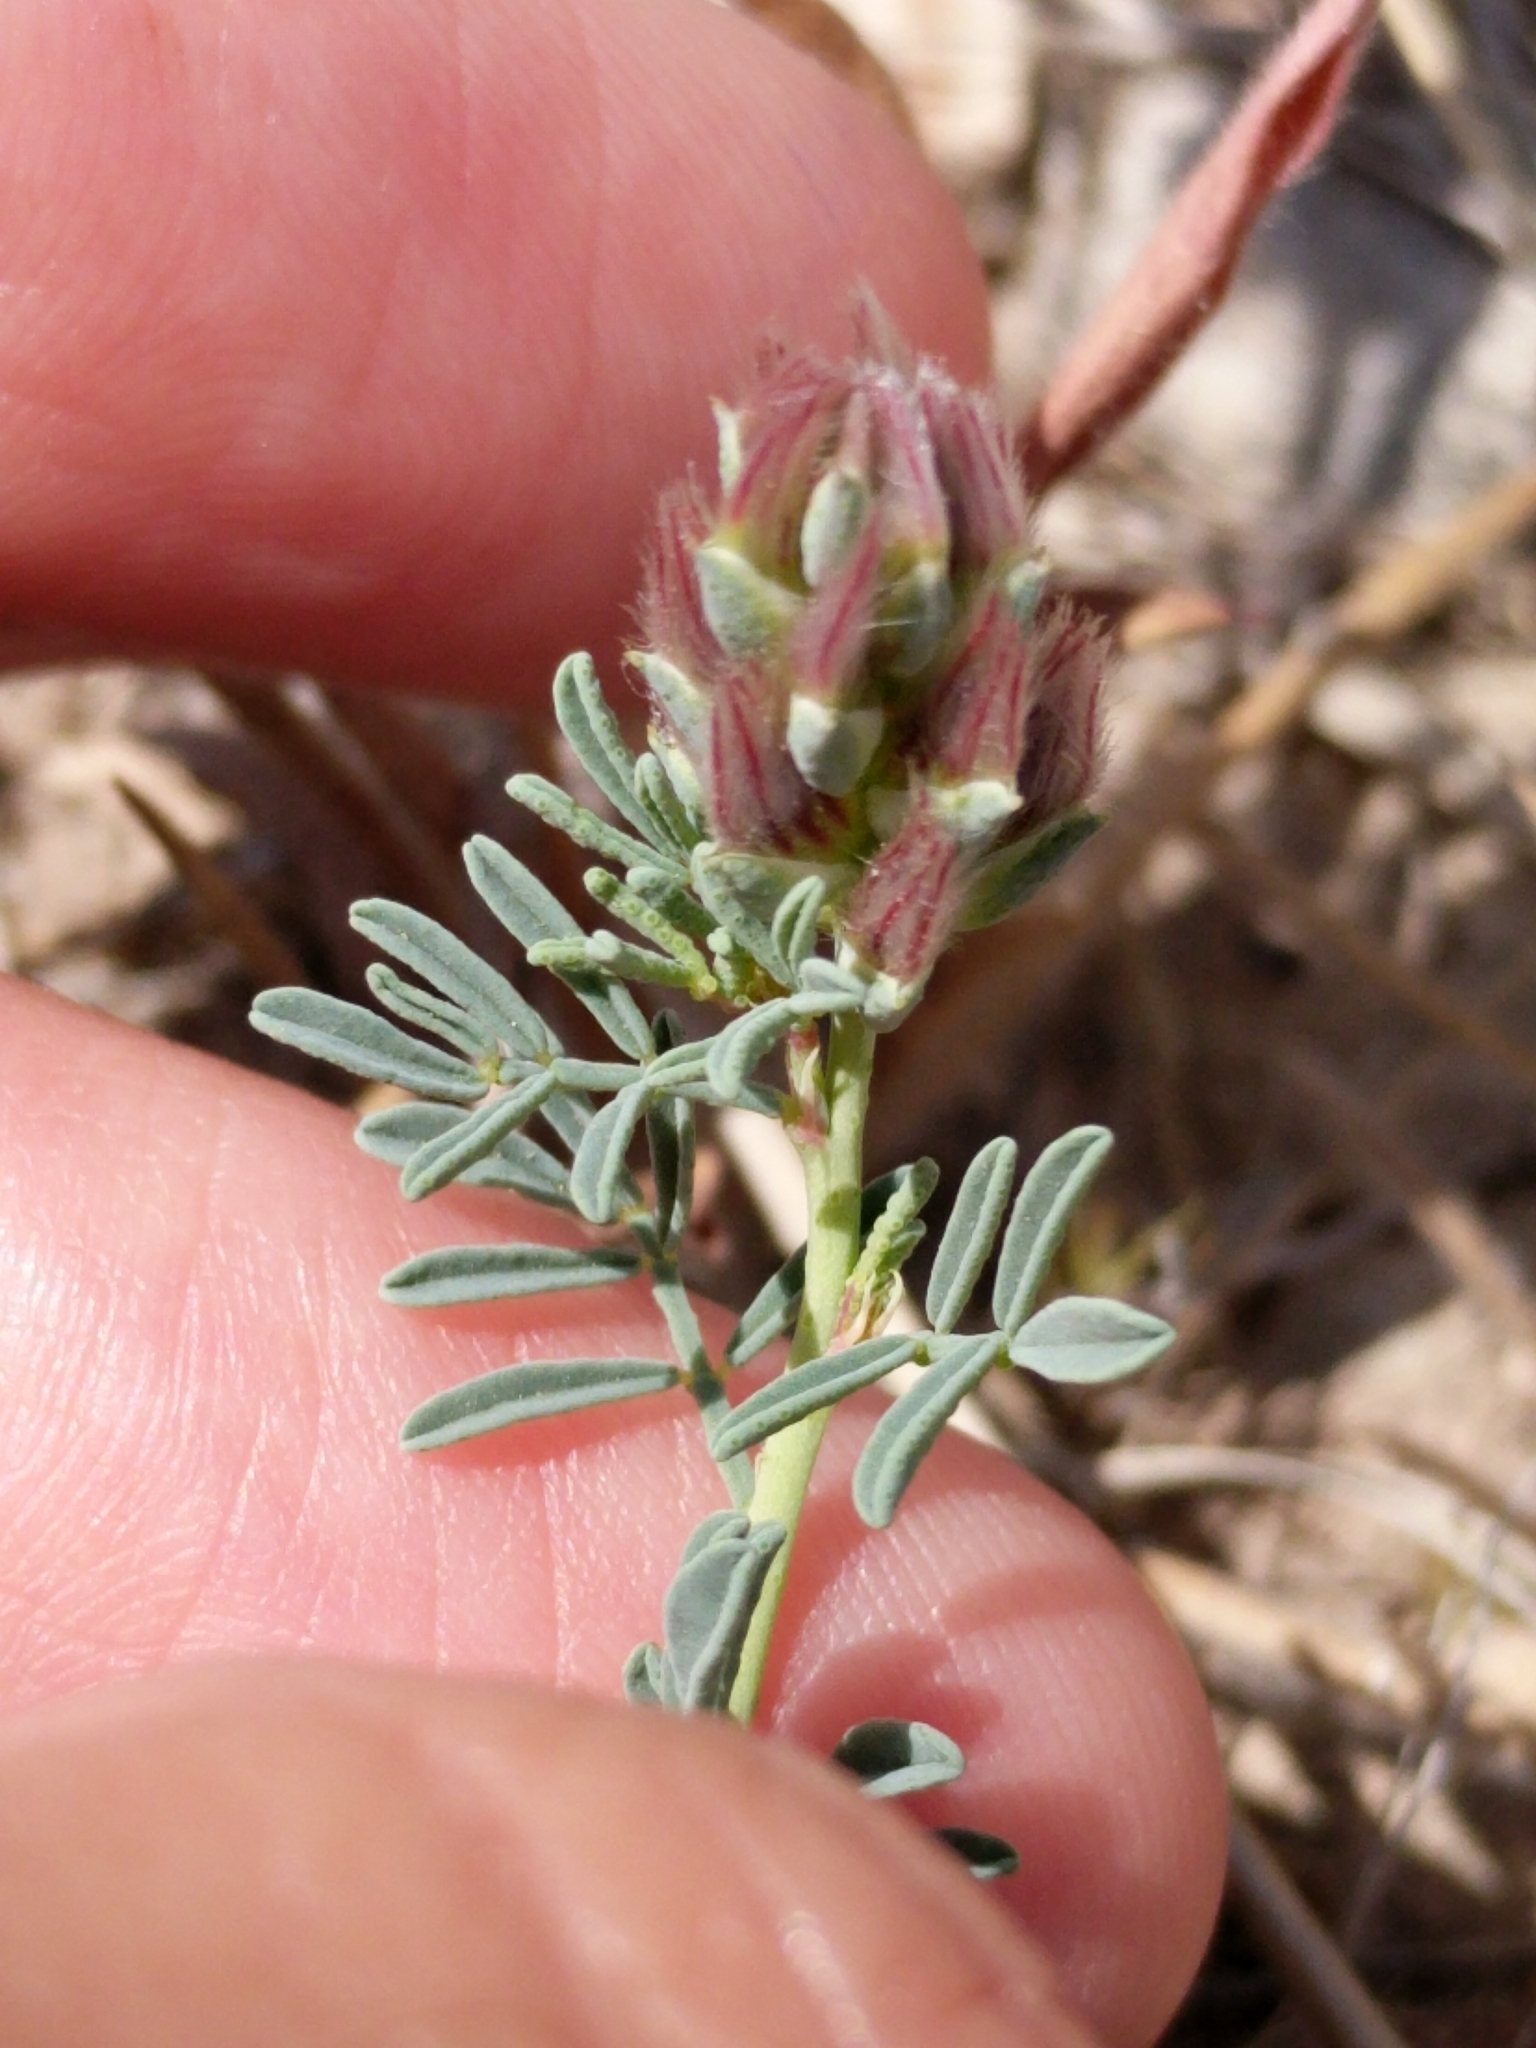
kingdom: Plantae
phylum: Tracheophyta
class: Magnoliopsida
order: Fabales
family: Fabaceae
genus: Dalea
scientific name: Dalea pogonathera
